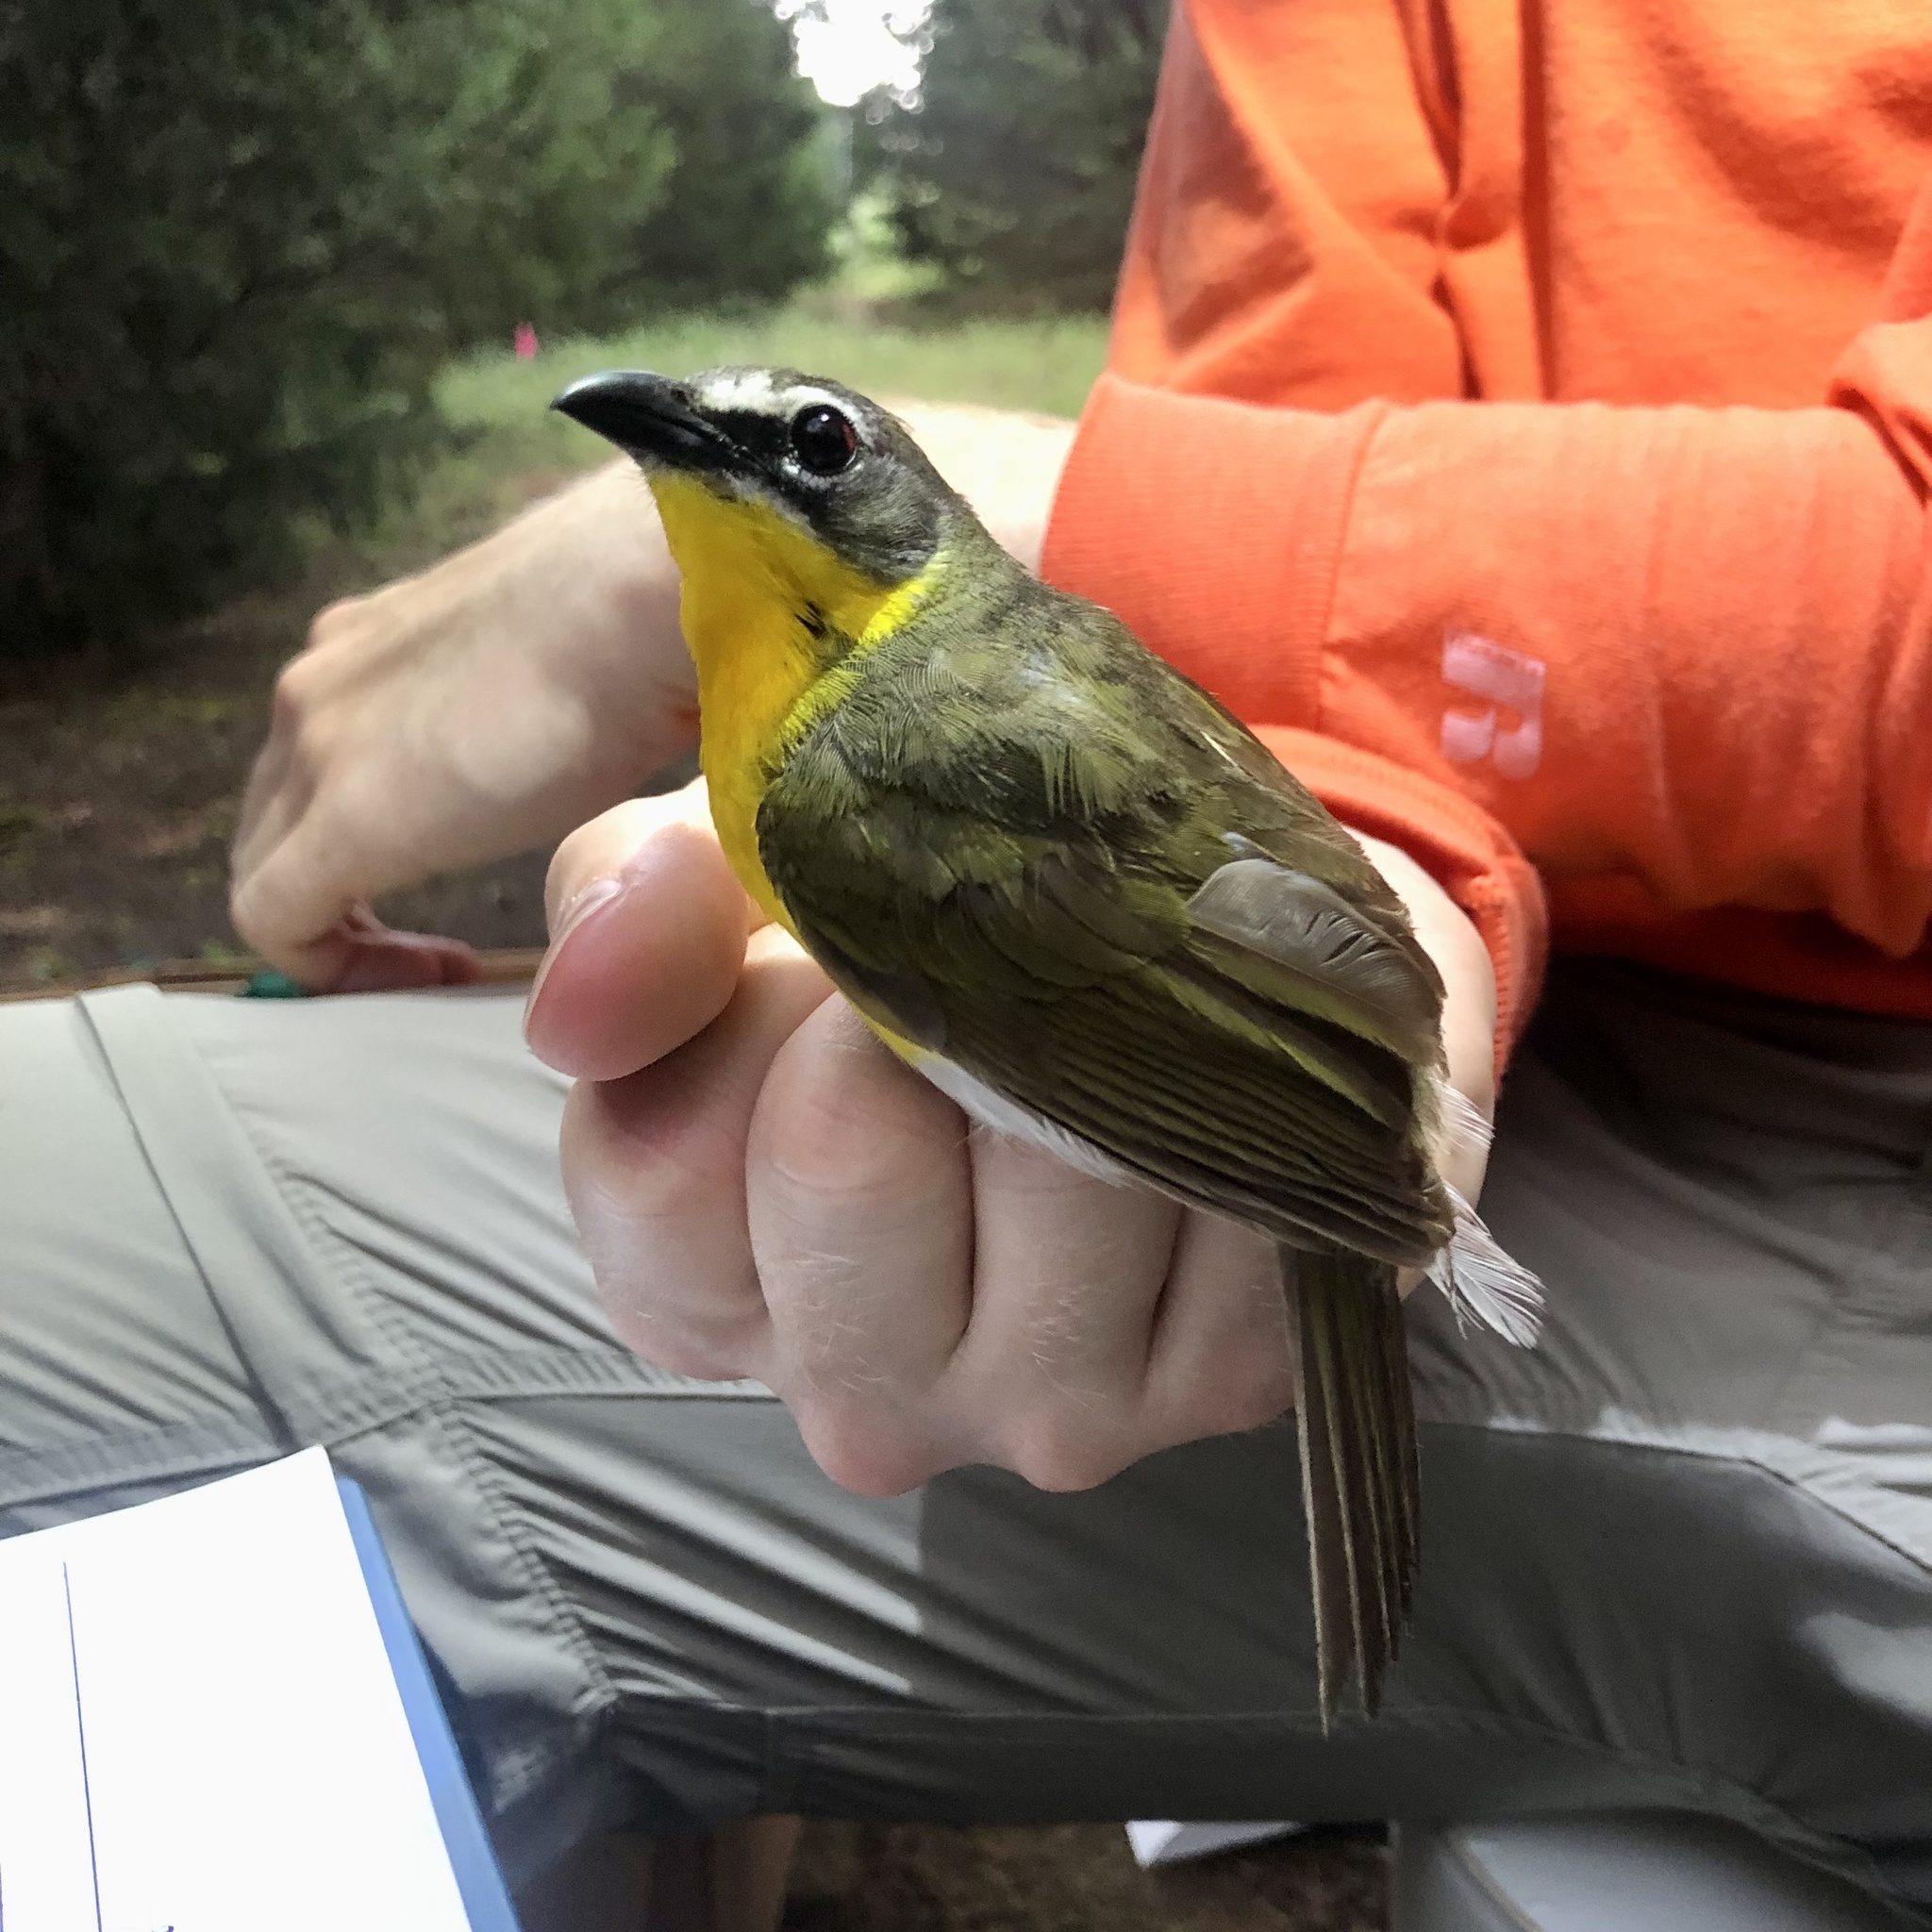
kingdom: Animalia
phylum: Chordata
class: Aves
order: Passeriformes
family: Parulidae
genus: Icteria
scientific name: Icteria virens
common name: Yellow-breasted chat
